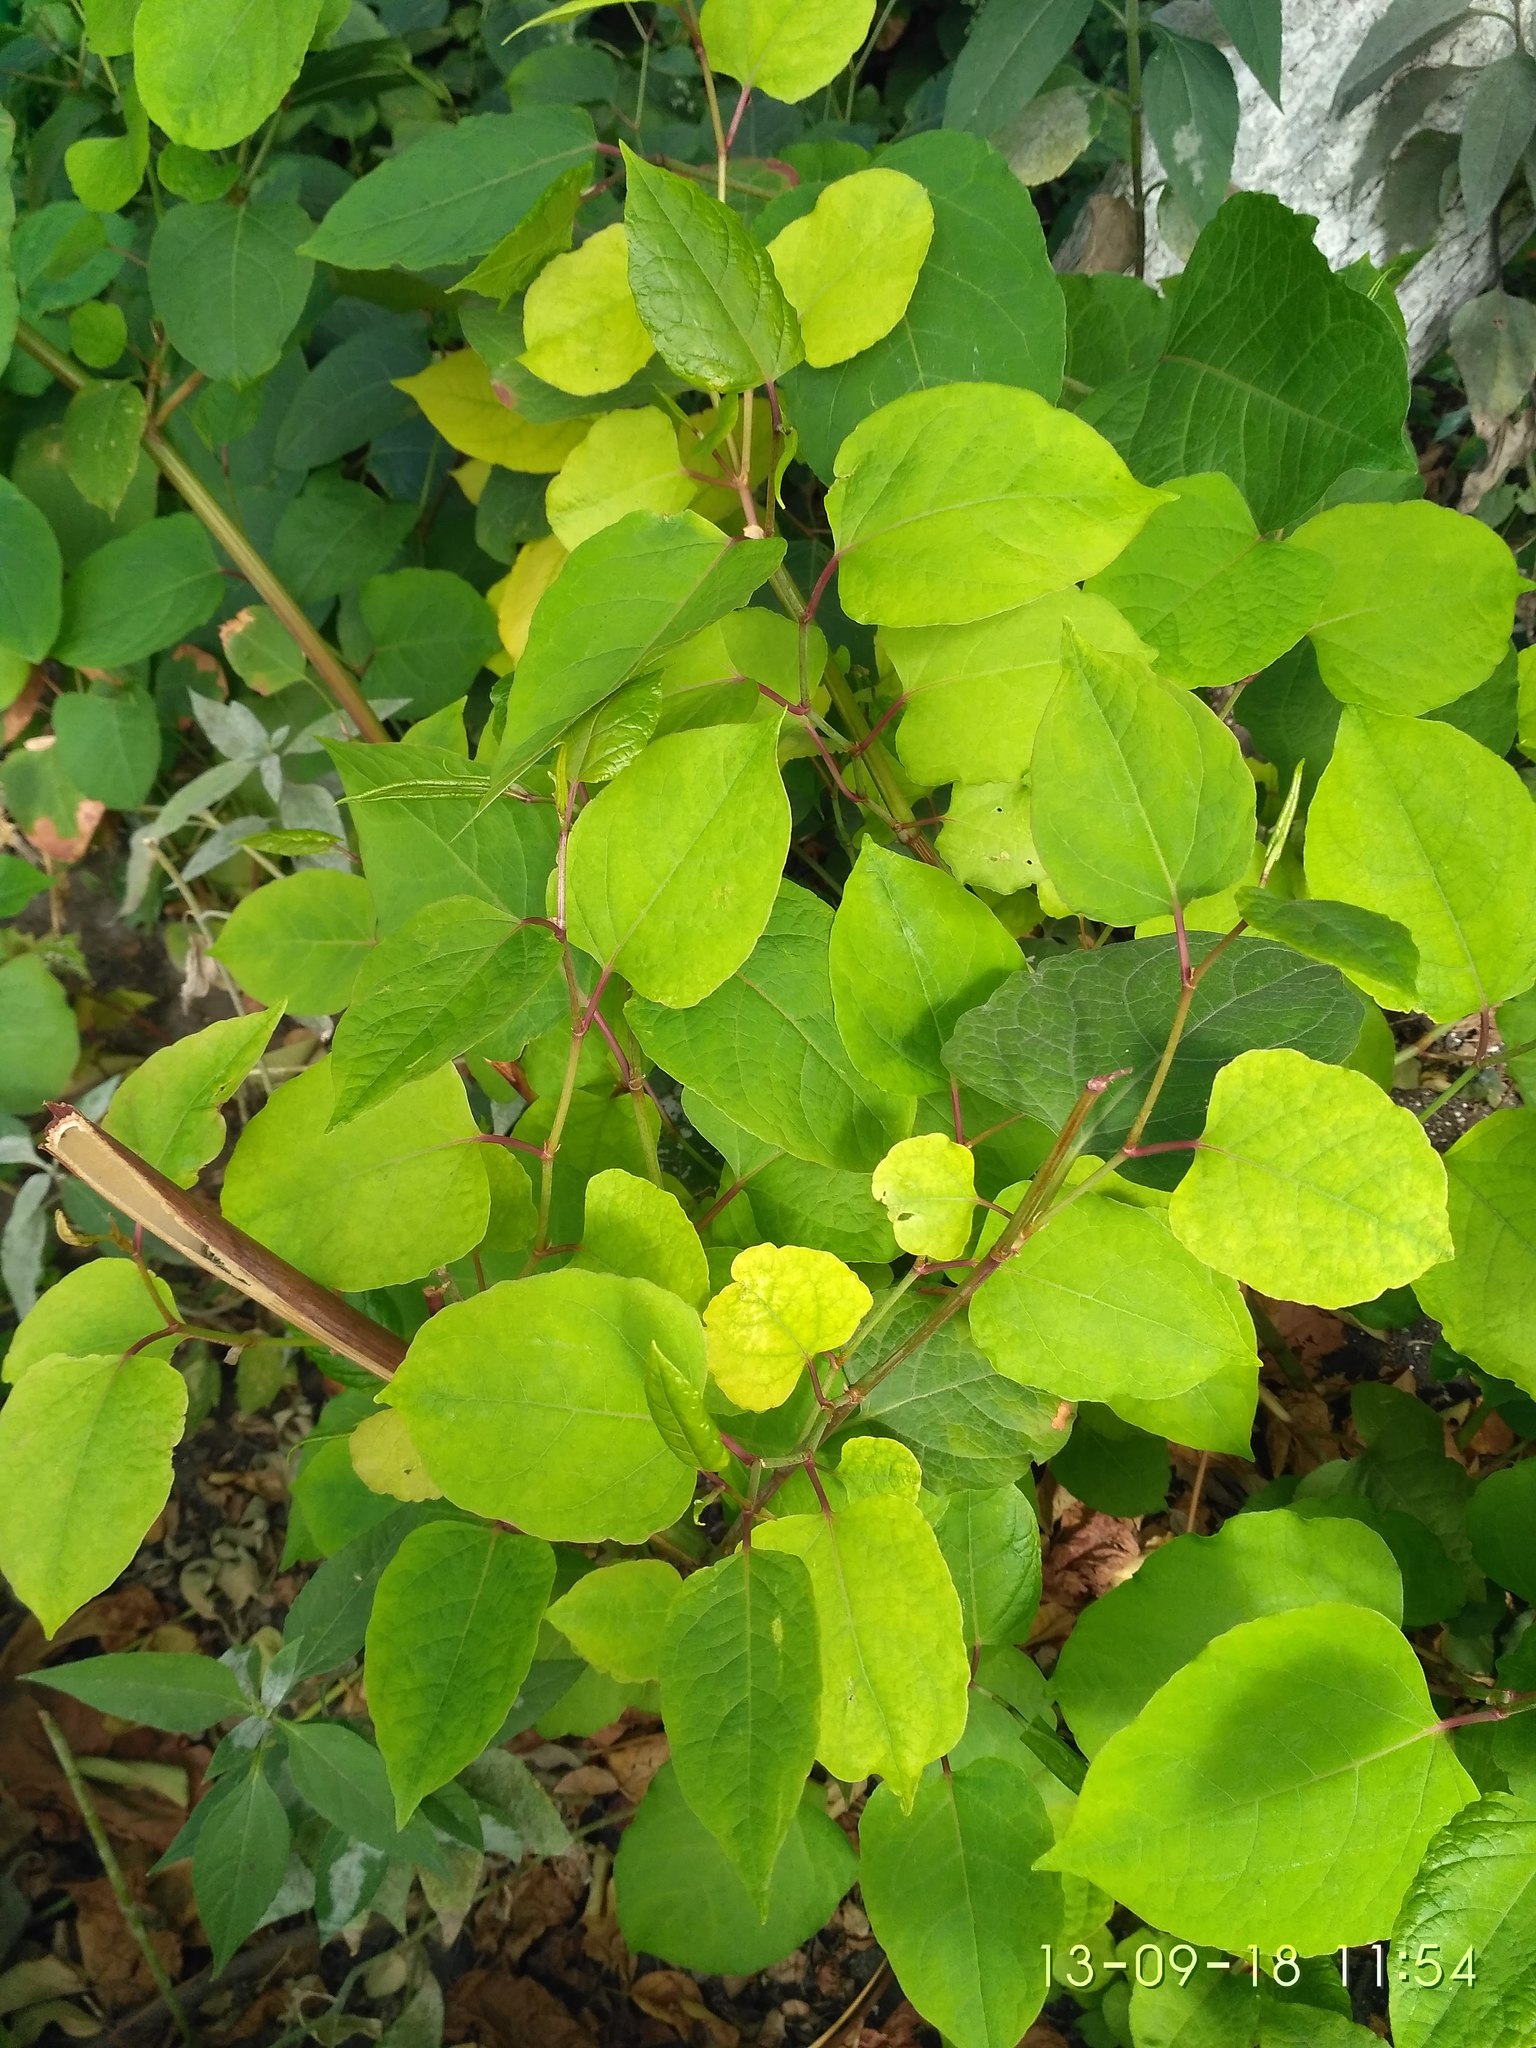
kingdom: Plantae
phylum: Tracheophyta
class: Magnoliopsida
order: Caryophyllales
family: Polygonaceae
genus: Reynoutria
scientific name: Reynoutria bohemica
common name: Bohemian knotweed
